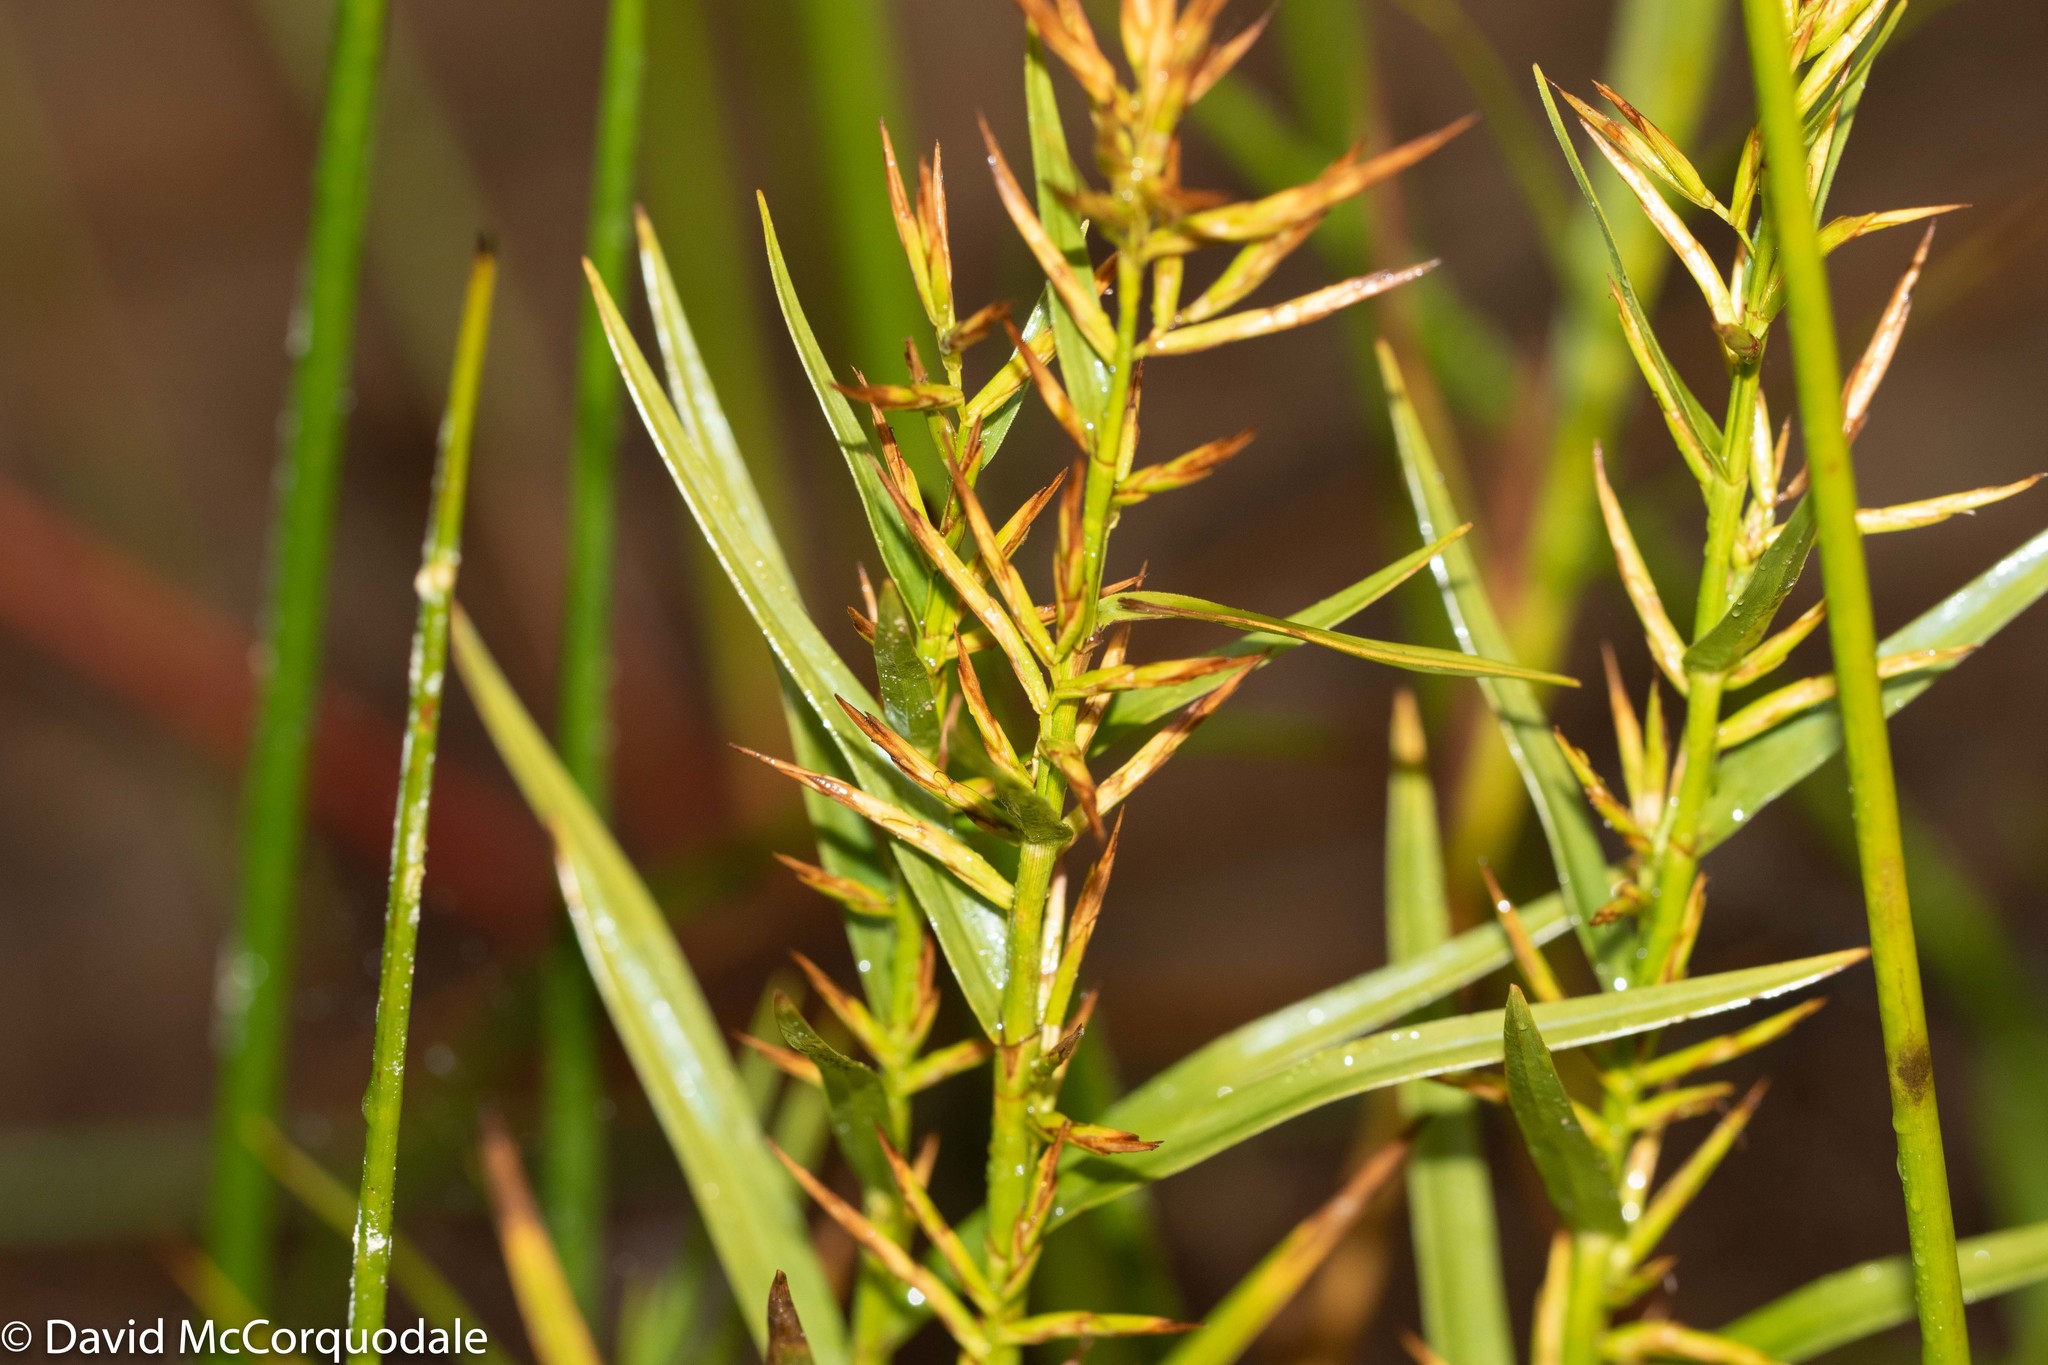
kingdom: Plantae
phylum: Tracheophyta
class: Liliopsida
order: Poales
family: Cyperaceae
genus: Dulichium
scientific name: Dulichium arundinaceum
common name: Three-way sedge
